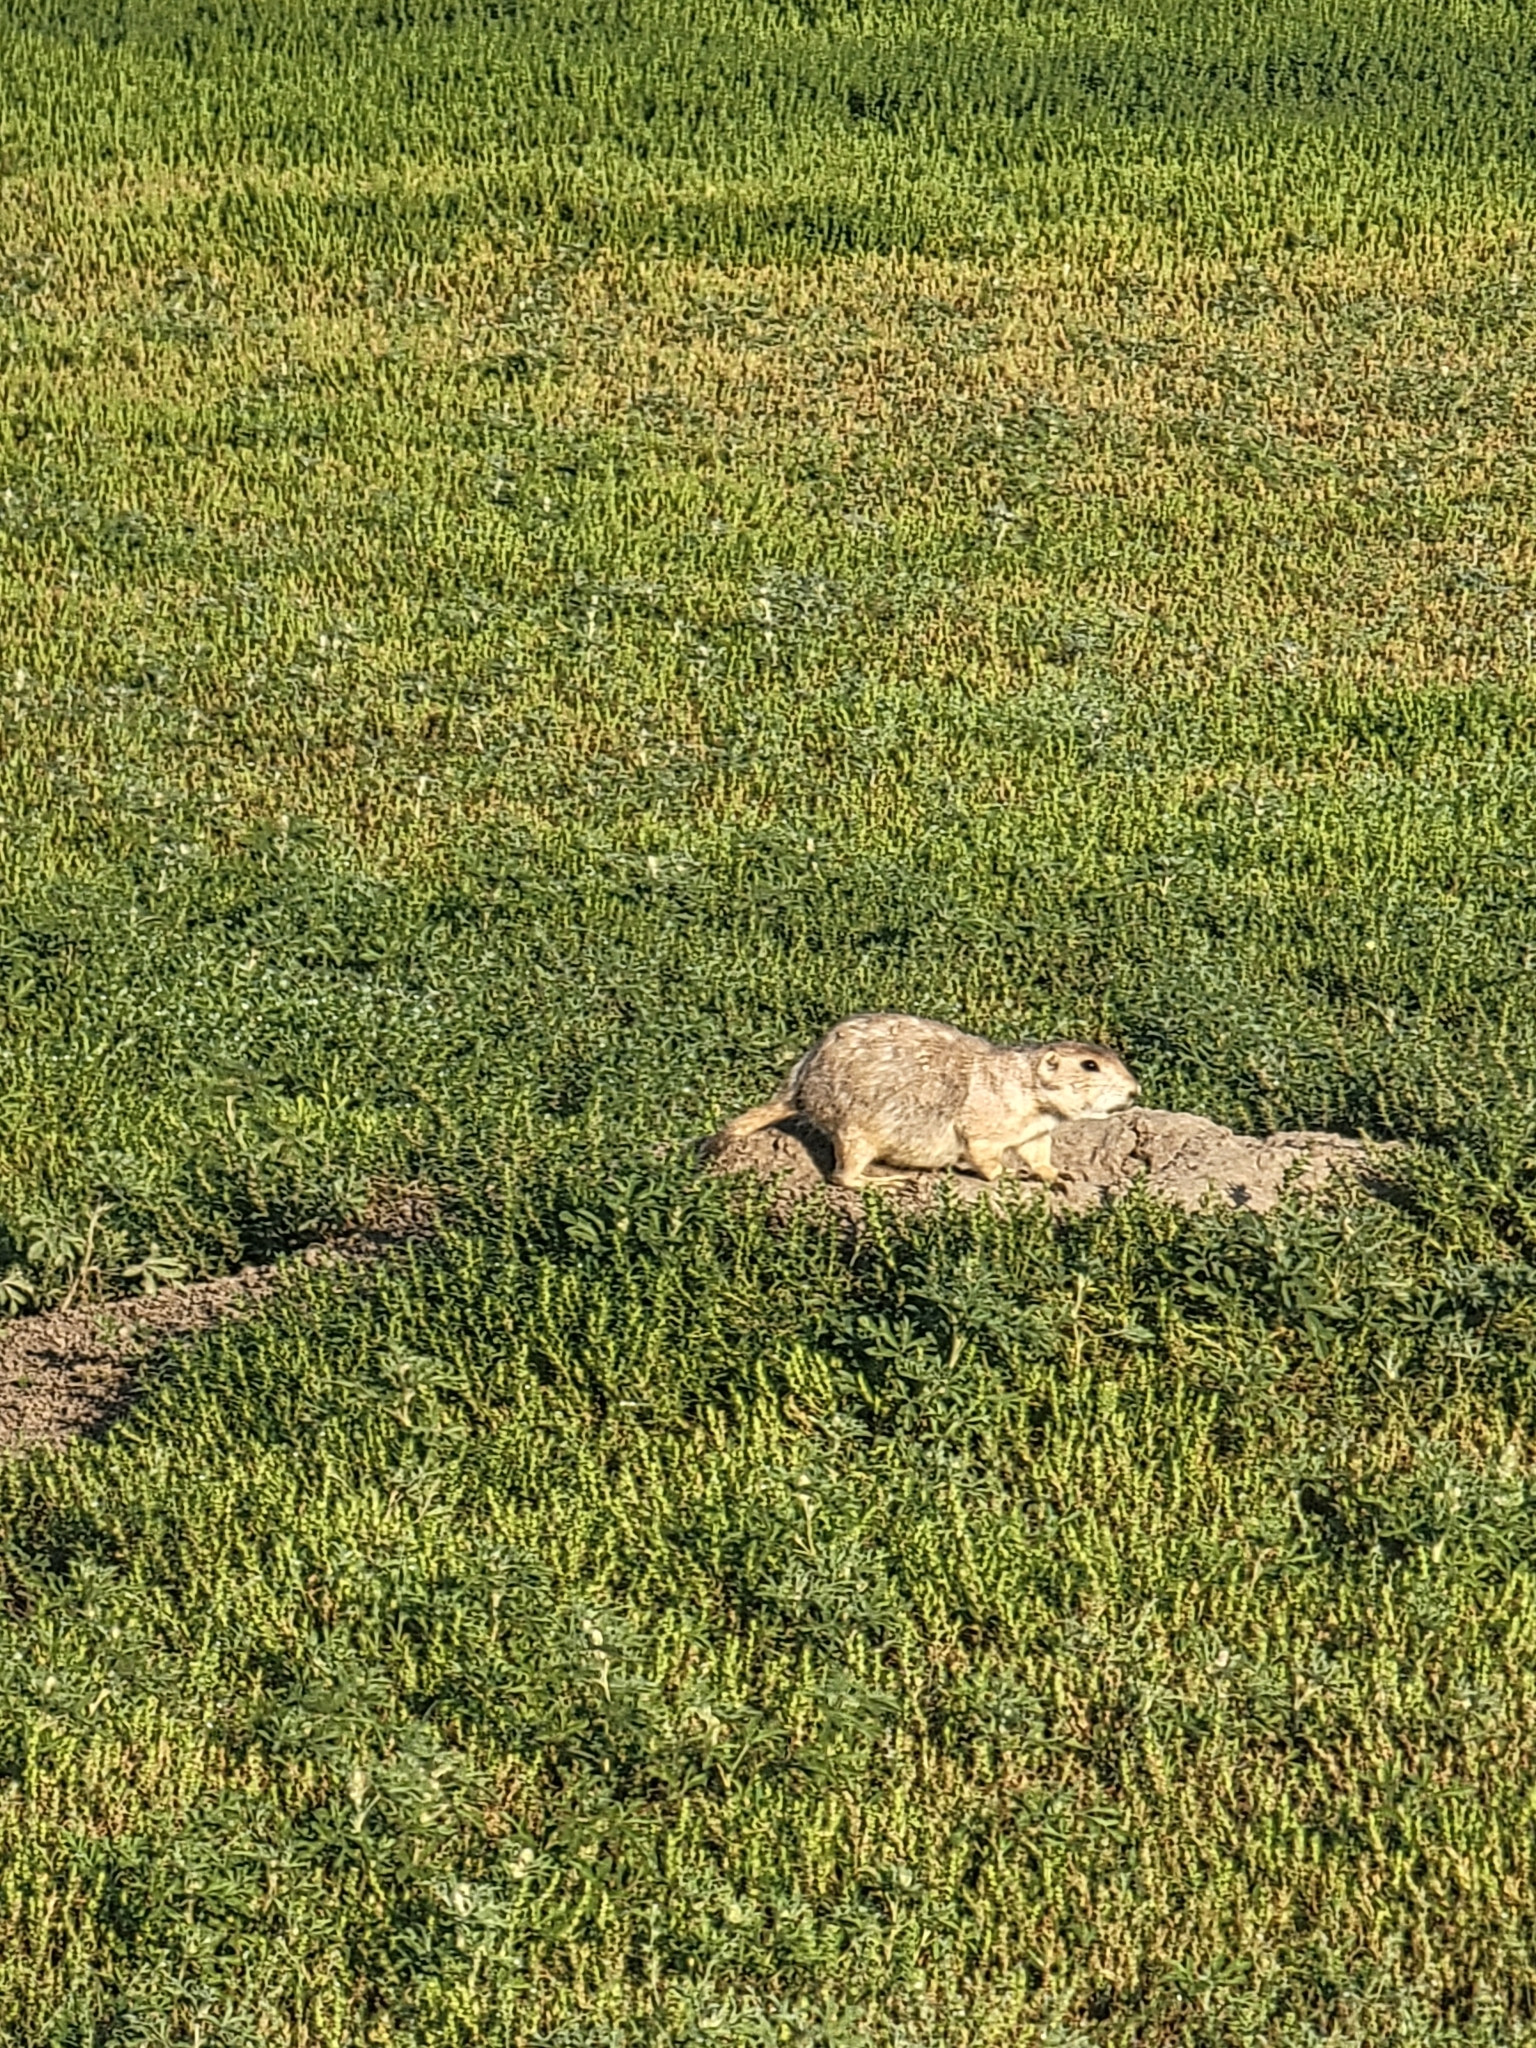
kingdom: Animalia
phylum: Chordata
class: Mammalia
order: Rodentia
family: Sciuridae
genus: Cynomys
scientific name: Cynomys ludovicianus
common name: Black-tailed prairie dog
